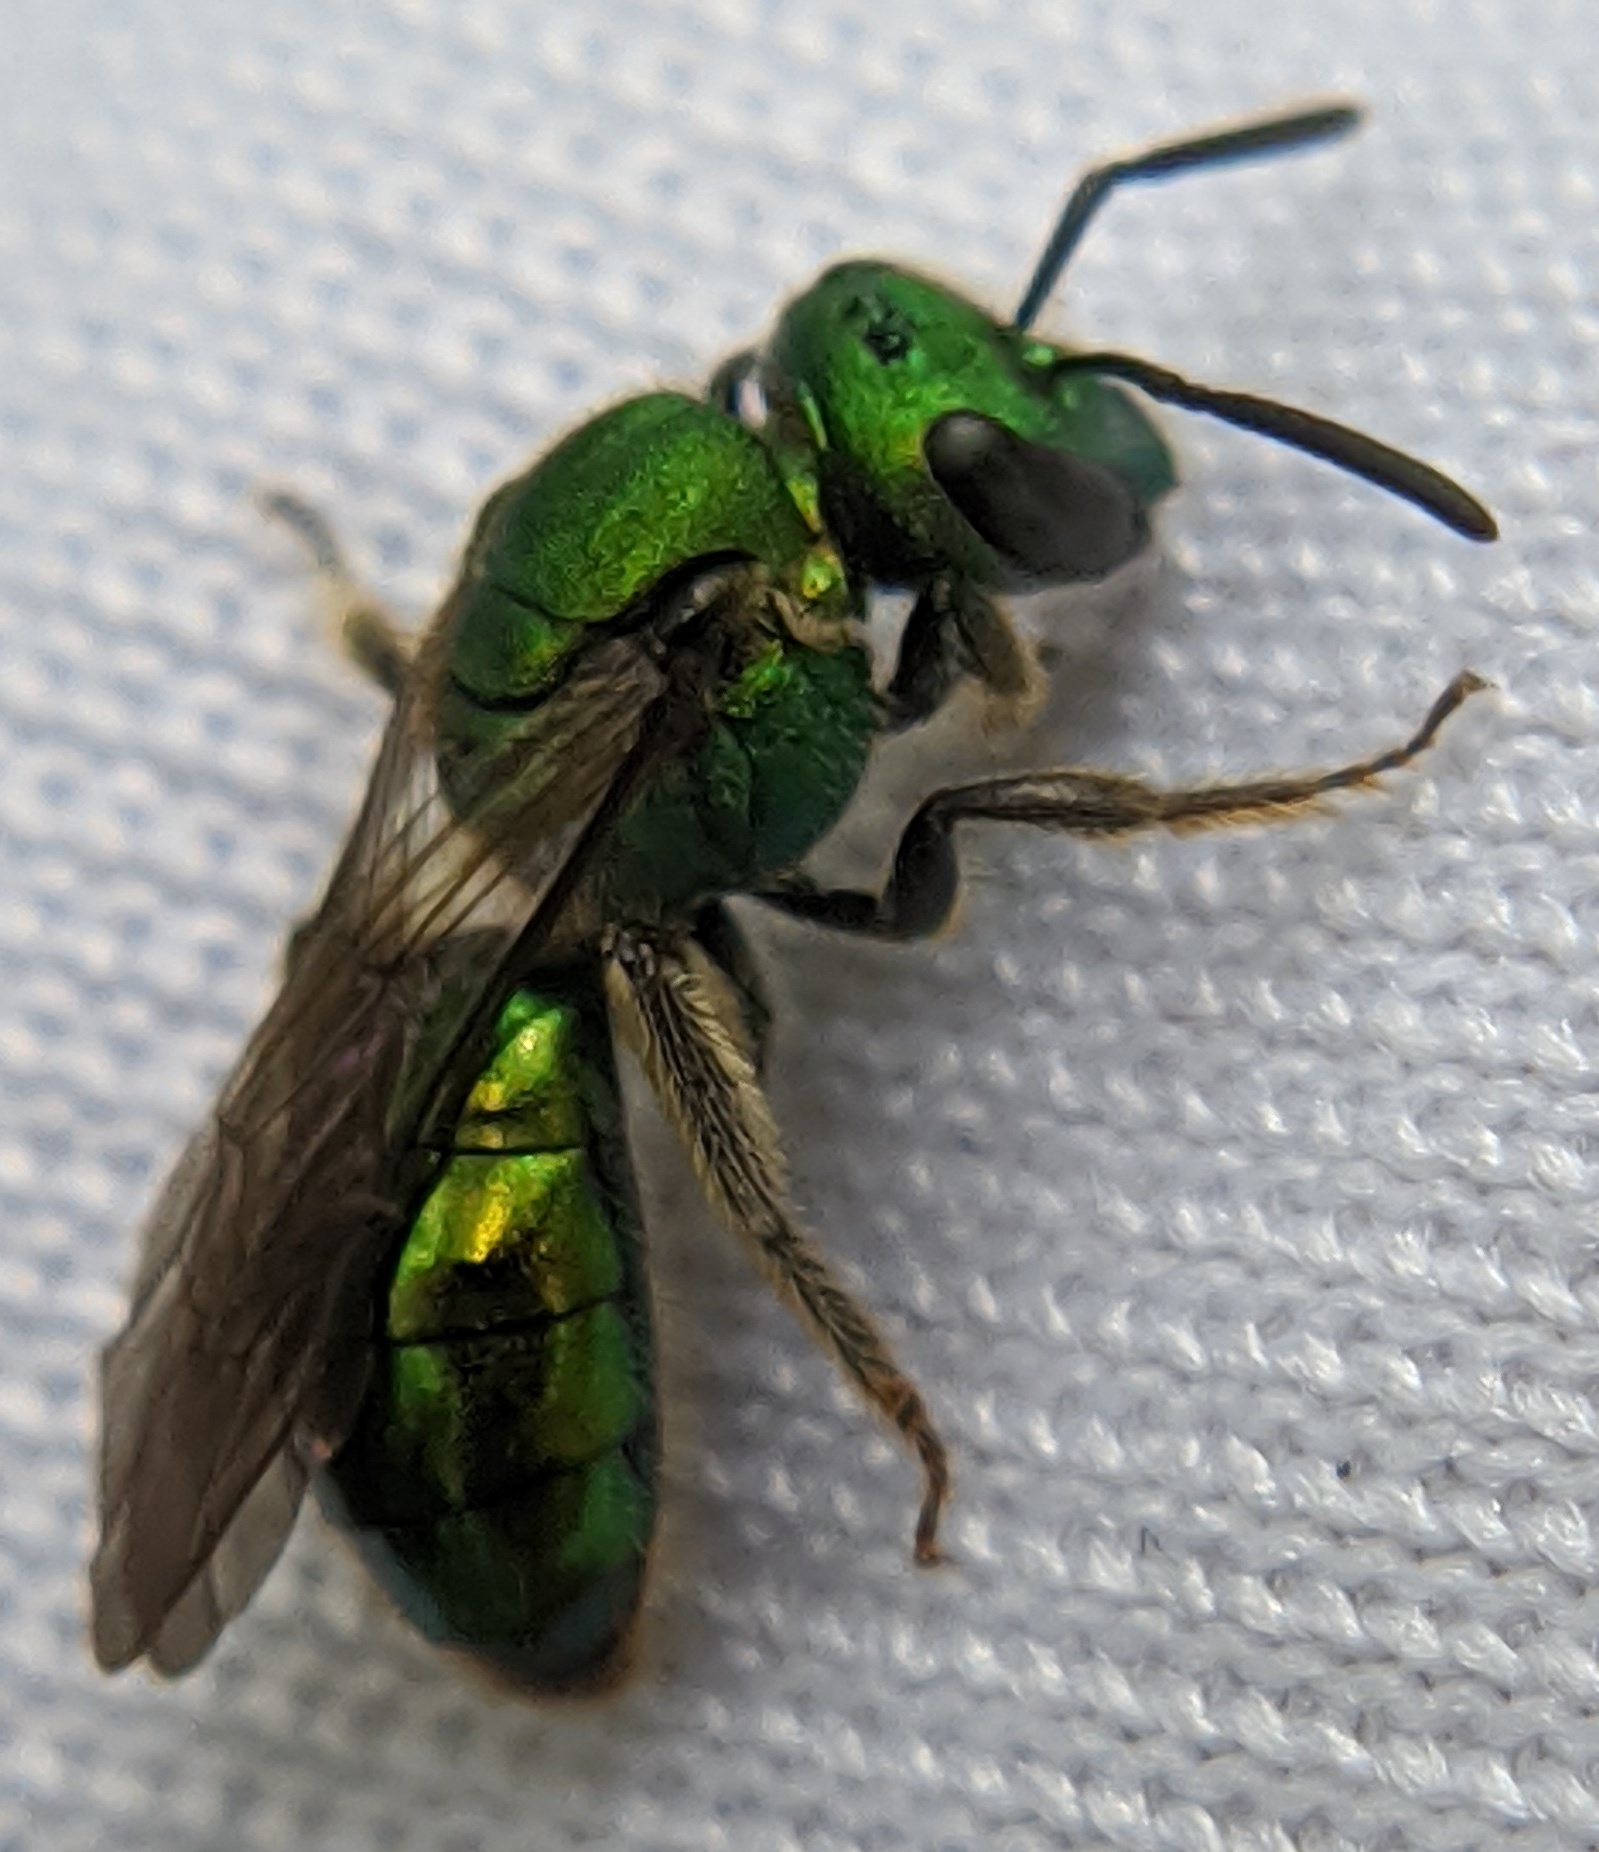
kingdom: Animalia
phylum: Arthropoda
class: Insecta
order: Hymenoptera
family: Halictidae
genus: Augochlora
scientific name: Augochlora pura
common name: Pure green sweat bee
